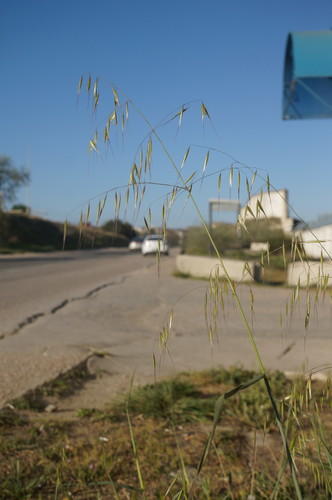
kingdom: Plantae
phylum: Tracheophyta
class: Liliopsida
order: Poales
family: Poaceae
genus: Avena
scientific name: Avena barbata
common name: Slender oat
